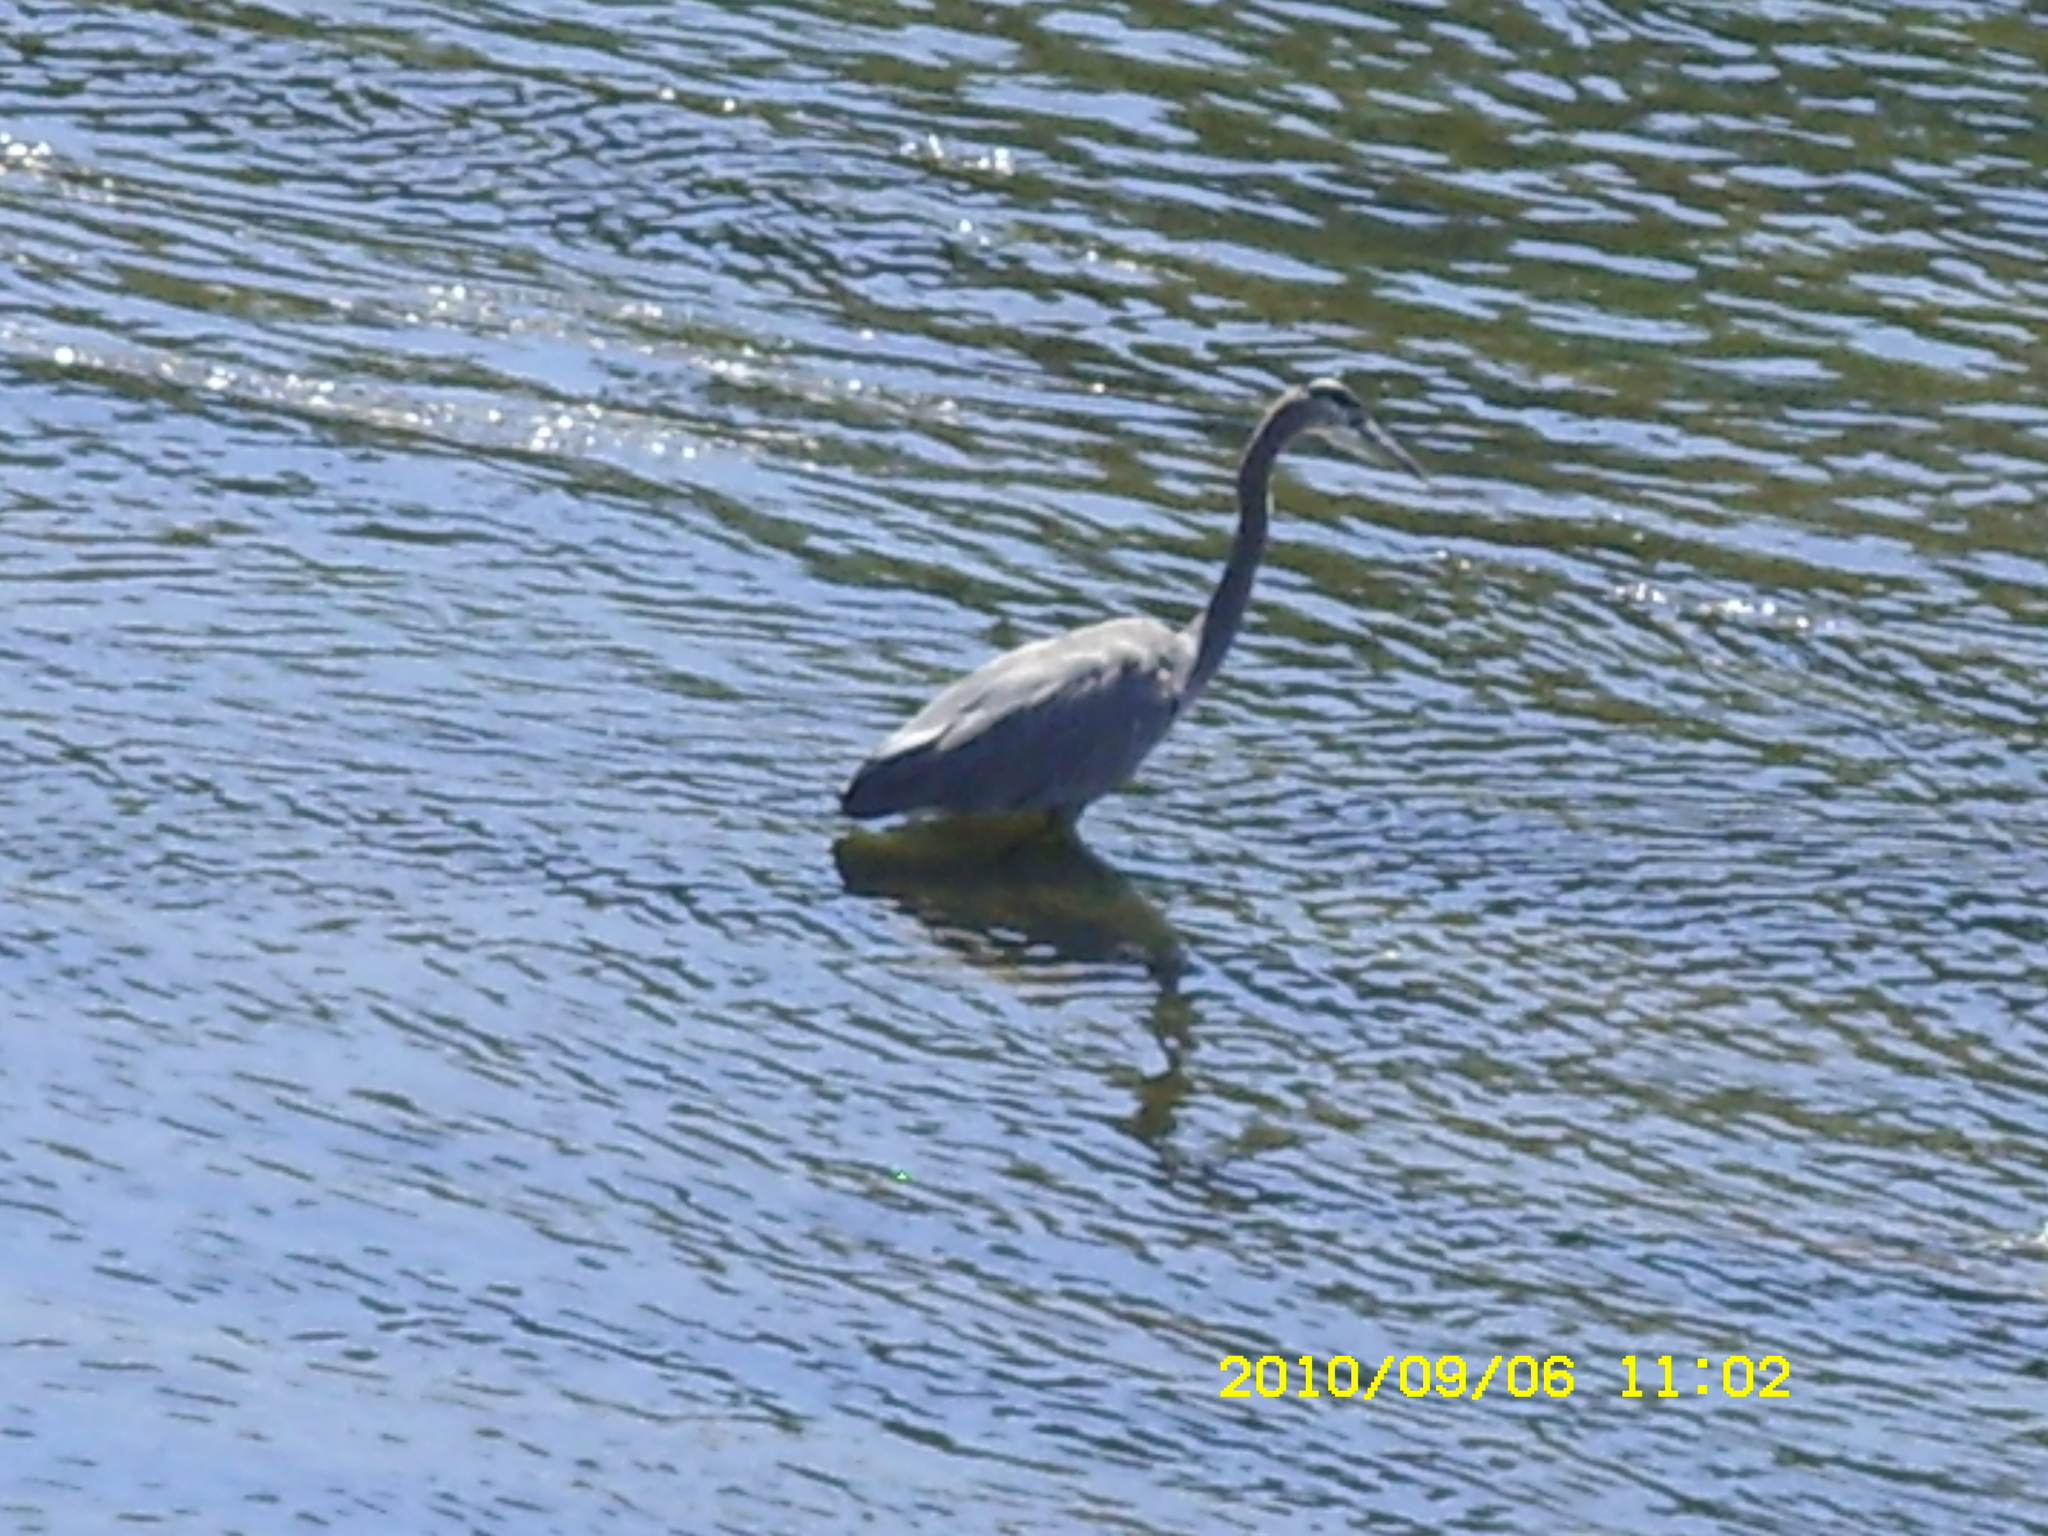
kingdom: Animalia
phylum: Chordata
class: Aves
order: Pelecaniformes
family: Ardeidae
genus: Ardea
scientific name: Ardea herodias
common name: Great blue heron
